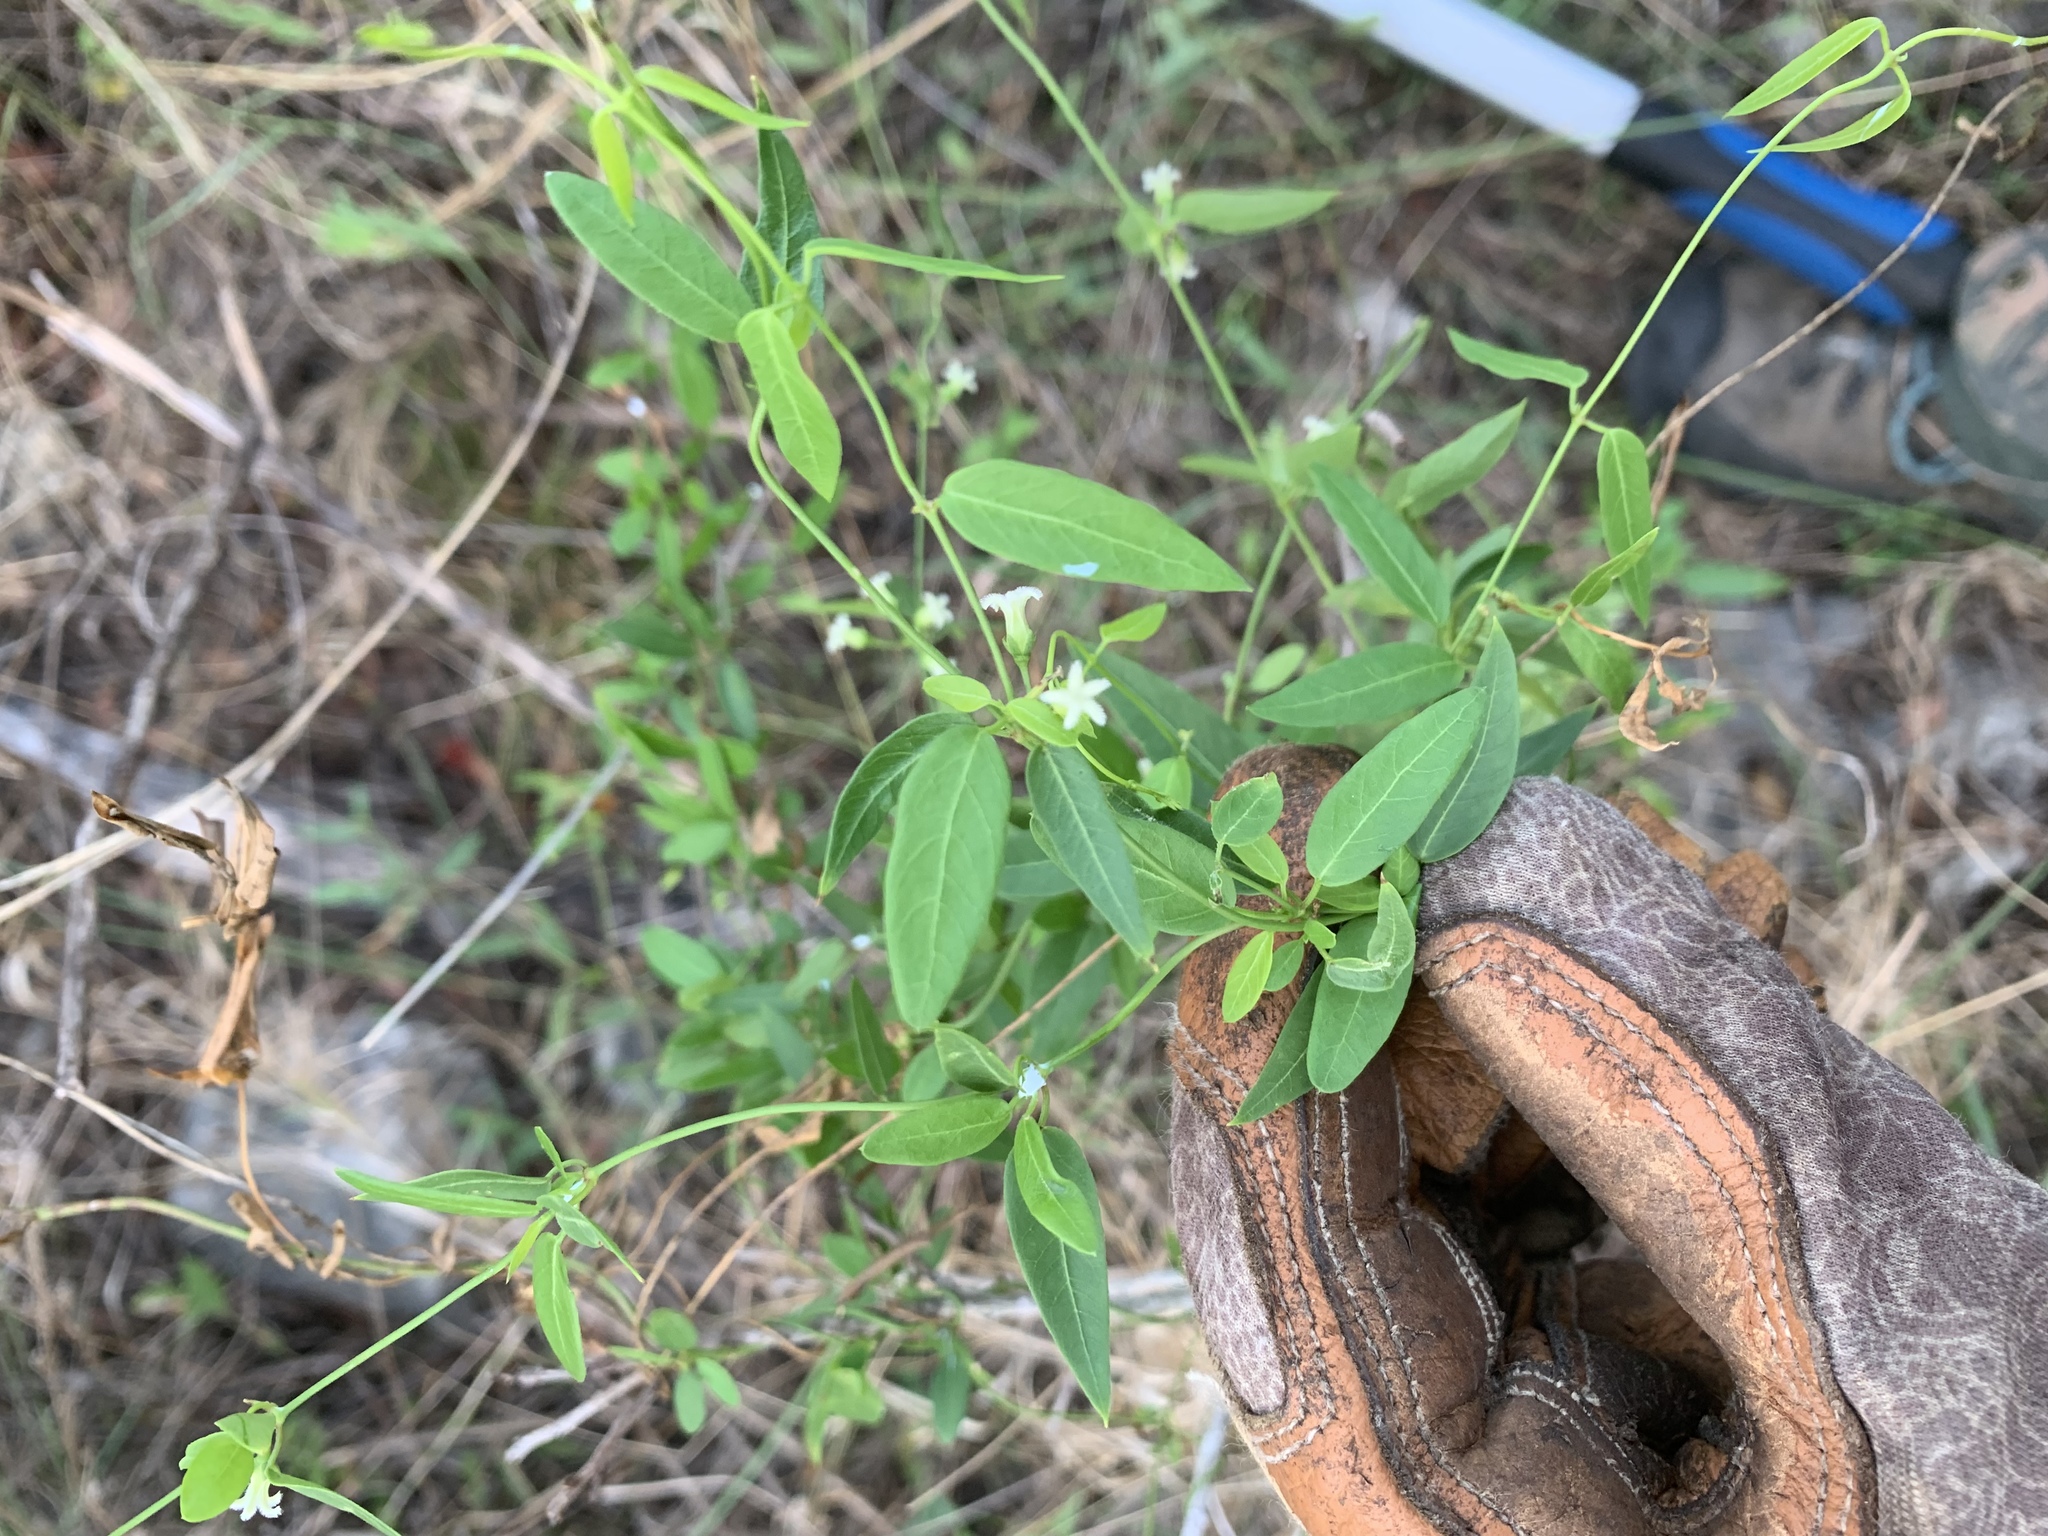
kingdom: Plantae
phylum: Tracheophyta
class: Magnoliopsida
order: Gentianales
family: Apocynaceae
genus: Metastelma
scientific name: Metastelma barbigerum
